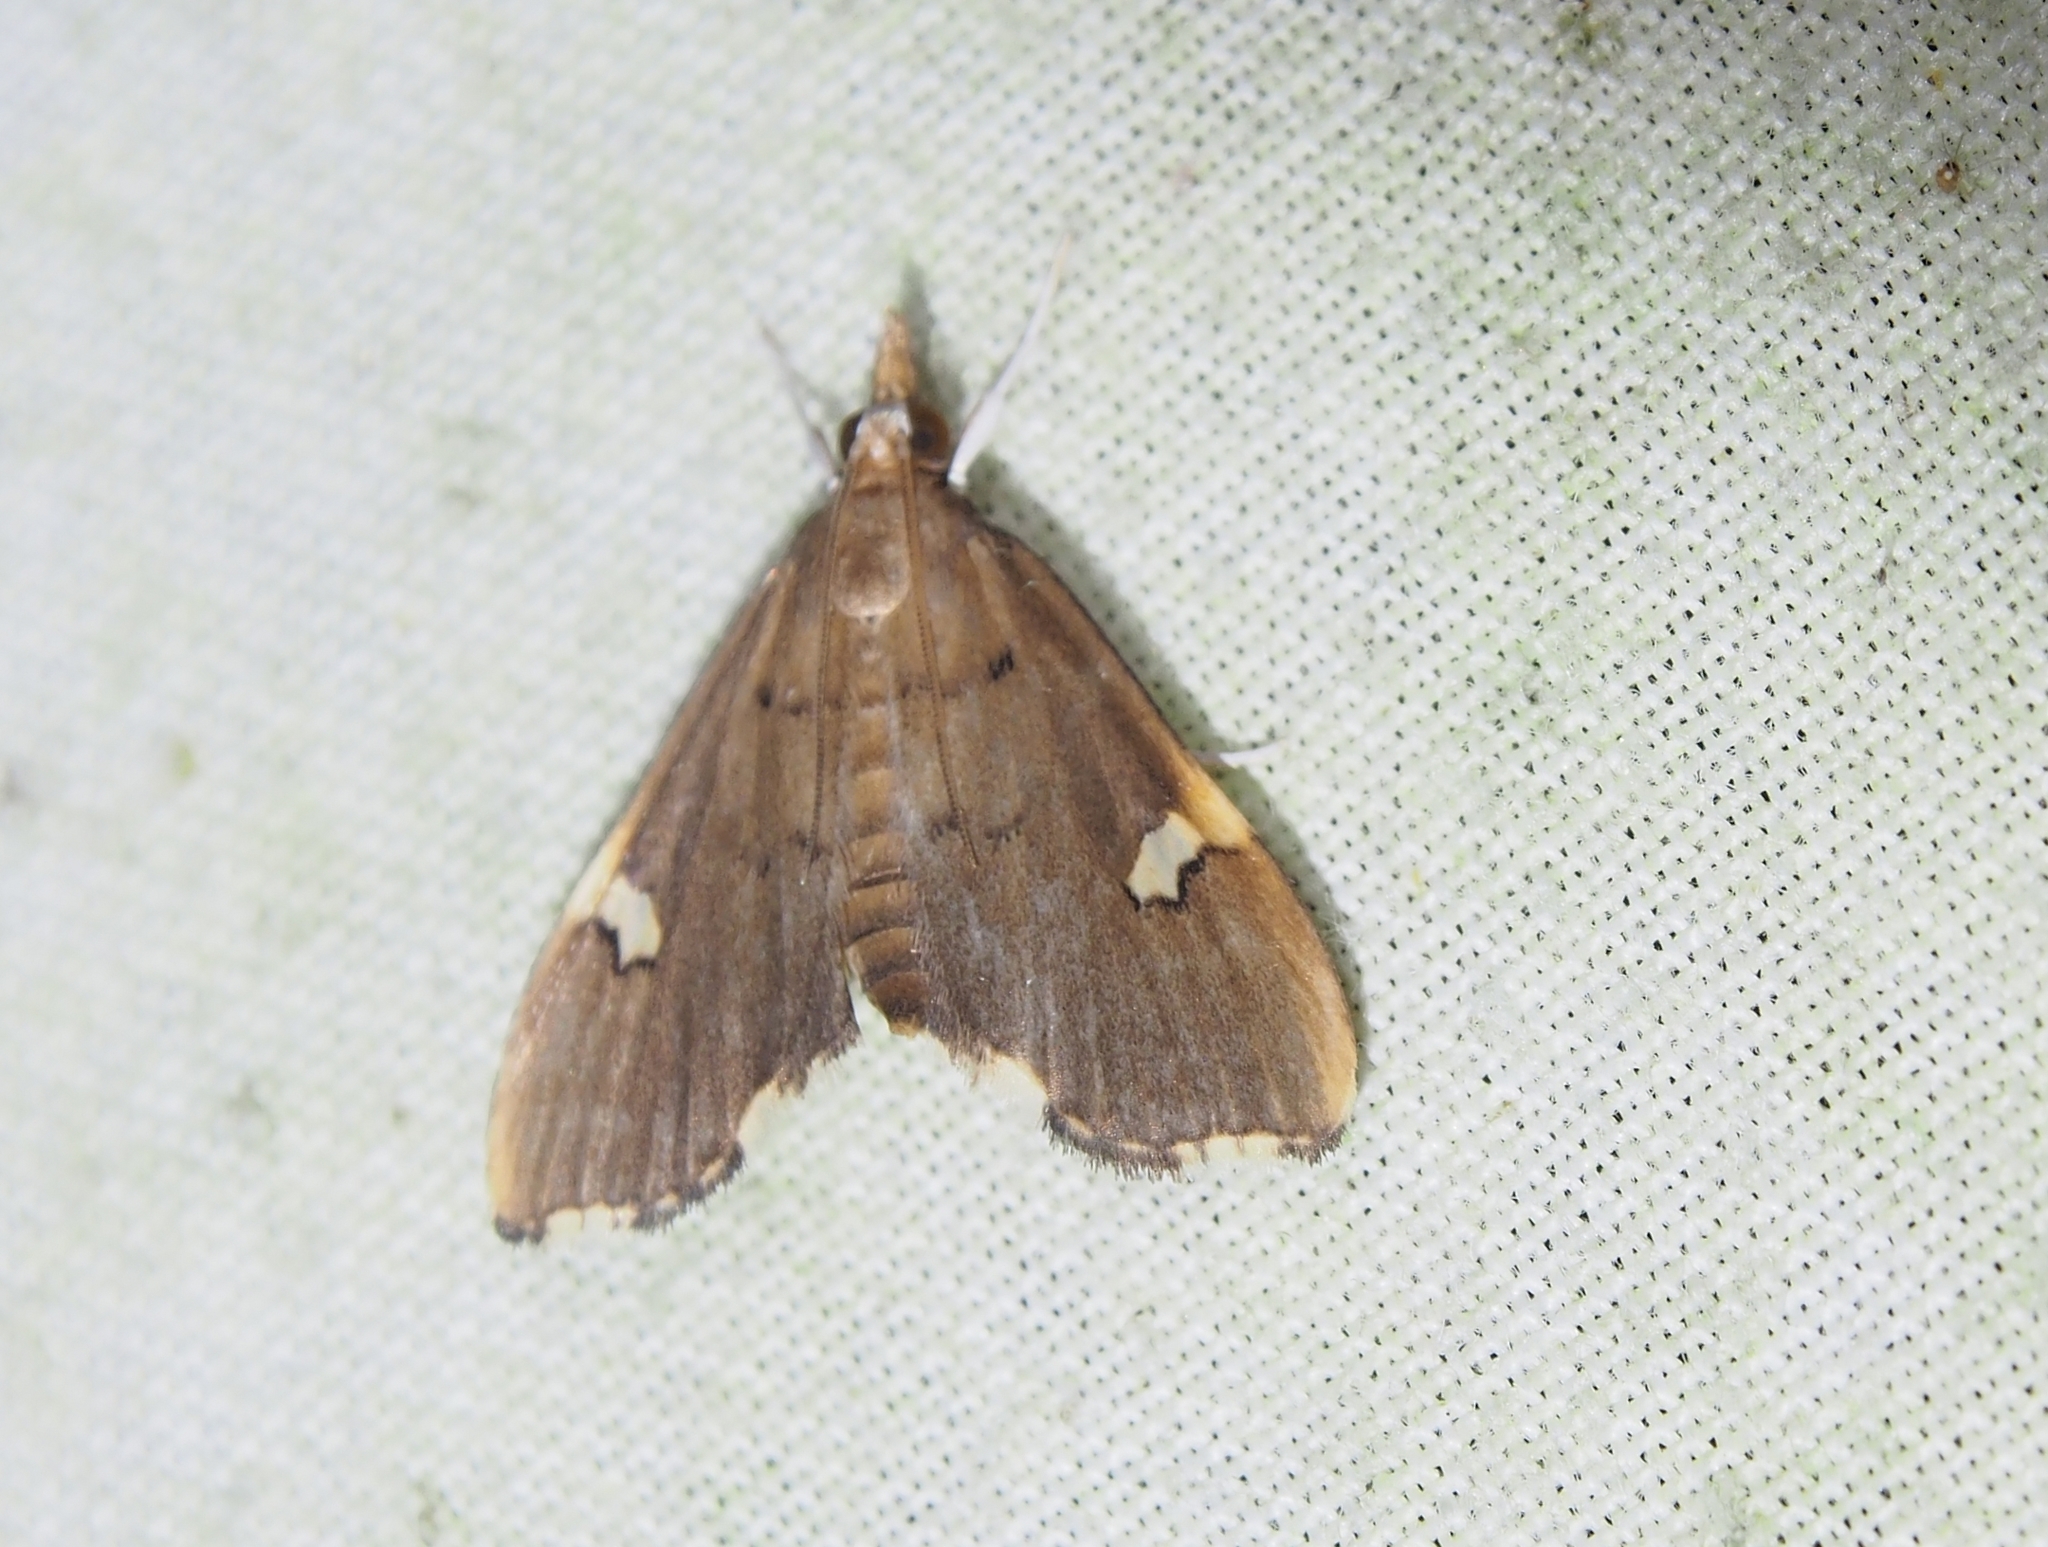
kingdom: Animalia
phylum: Arthropoda
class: Insecta
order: Lepidoptera
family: Crambidae
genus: Deuterophysa
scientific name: Deuterophysa asychanalis
